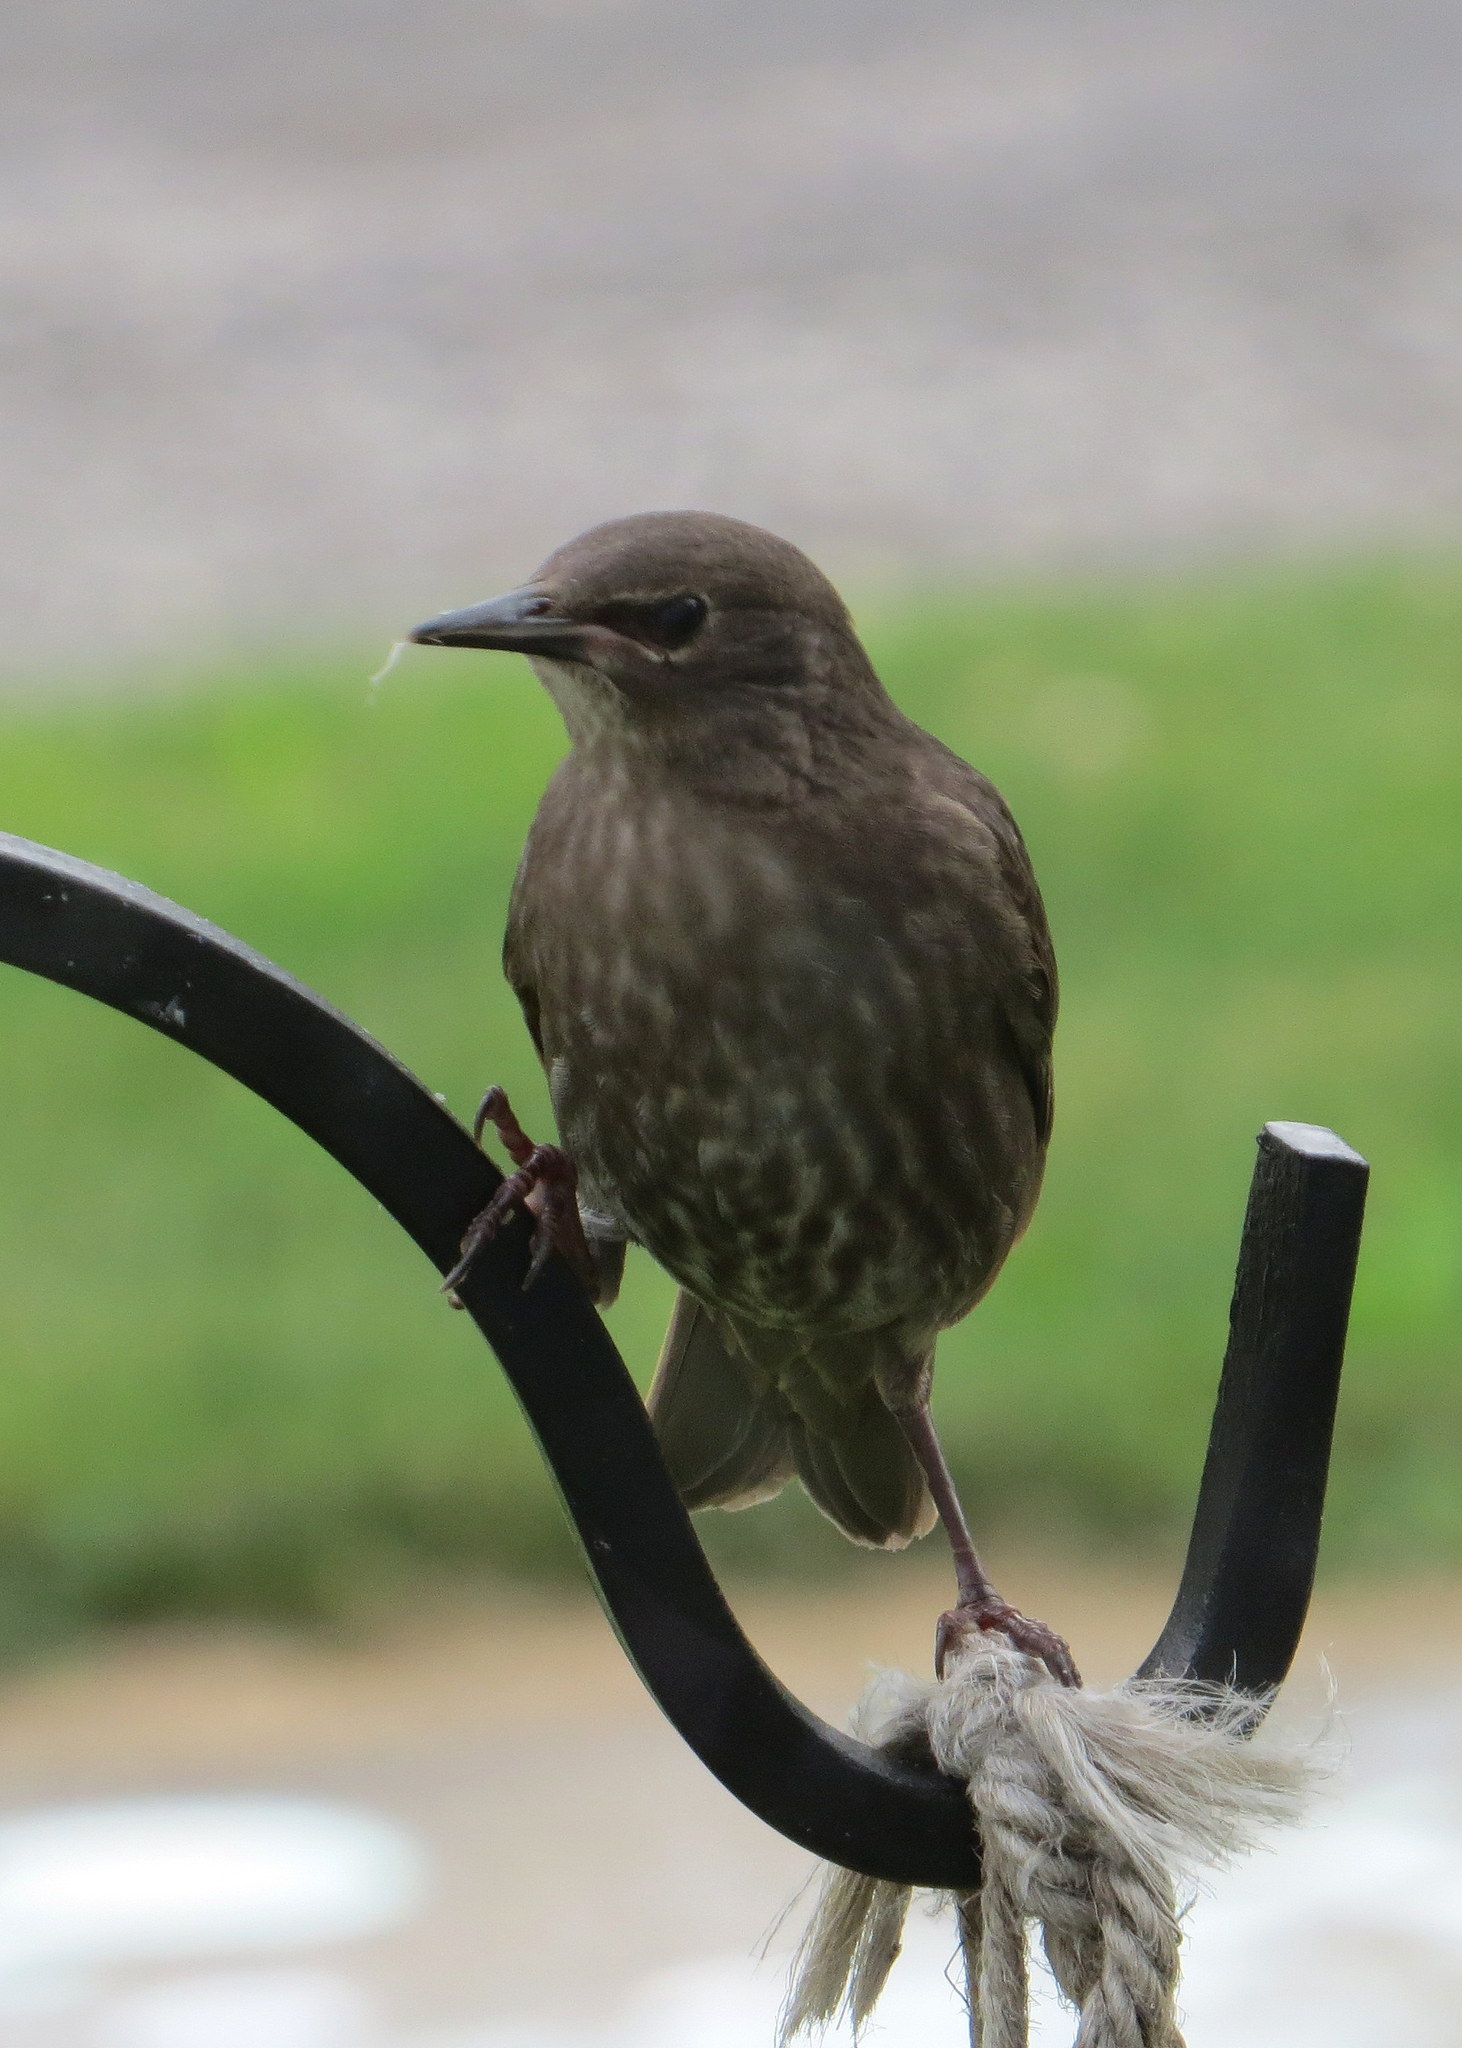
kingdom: Animalia
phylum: Chordata
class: Aves
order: Passeriformes
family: Sturnidae
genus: Sturnus
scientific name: Sturnus vulgaris
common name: Common starling
